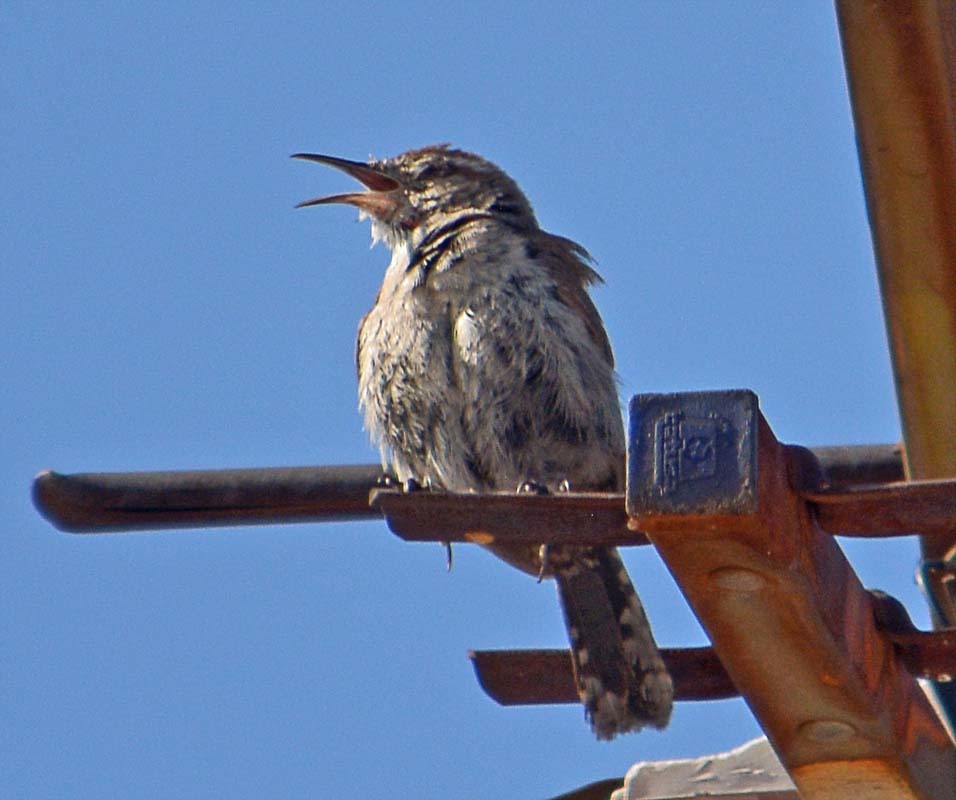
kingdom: Animalia
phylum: Chordata
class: Aves
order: Passeriformes
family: Troglodytidae
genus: Thryomanes
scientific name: Thryomanes bewickii
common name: Bewick's wren
